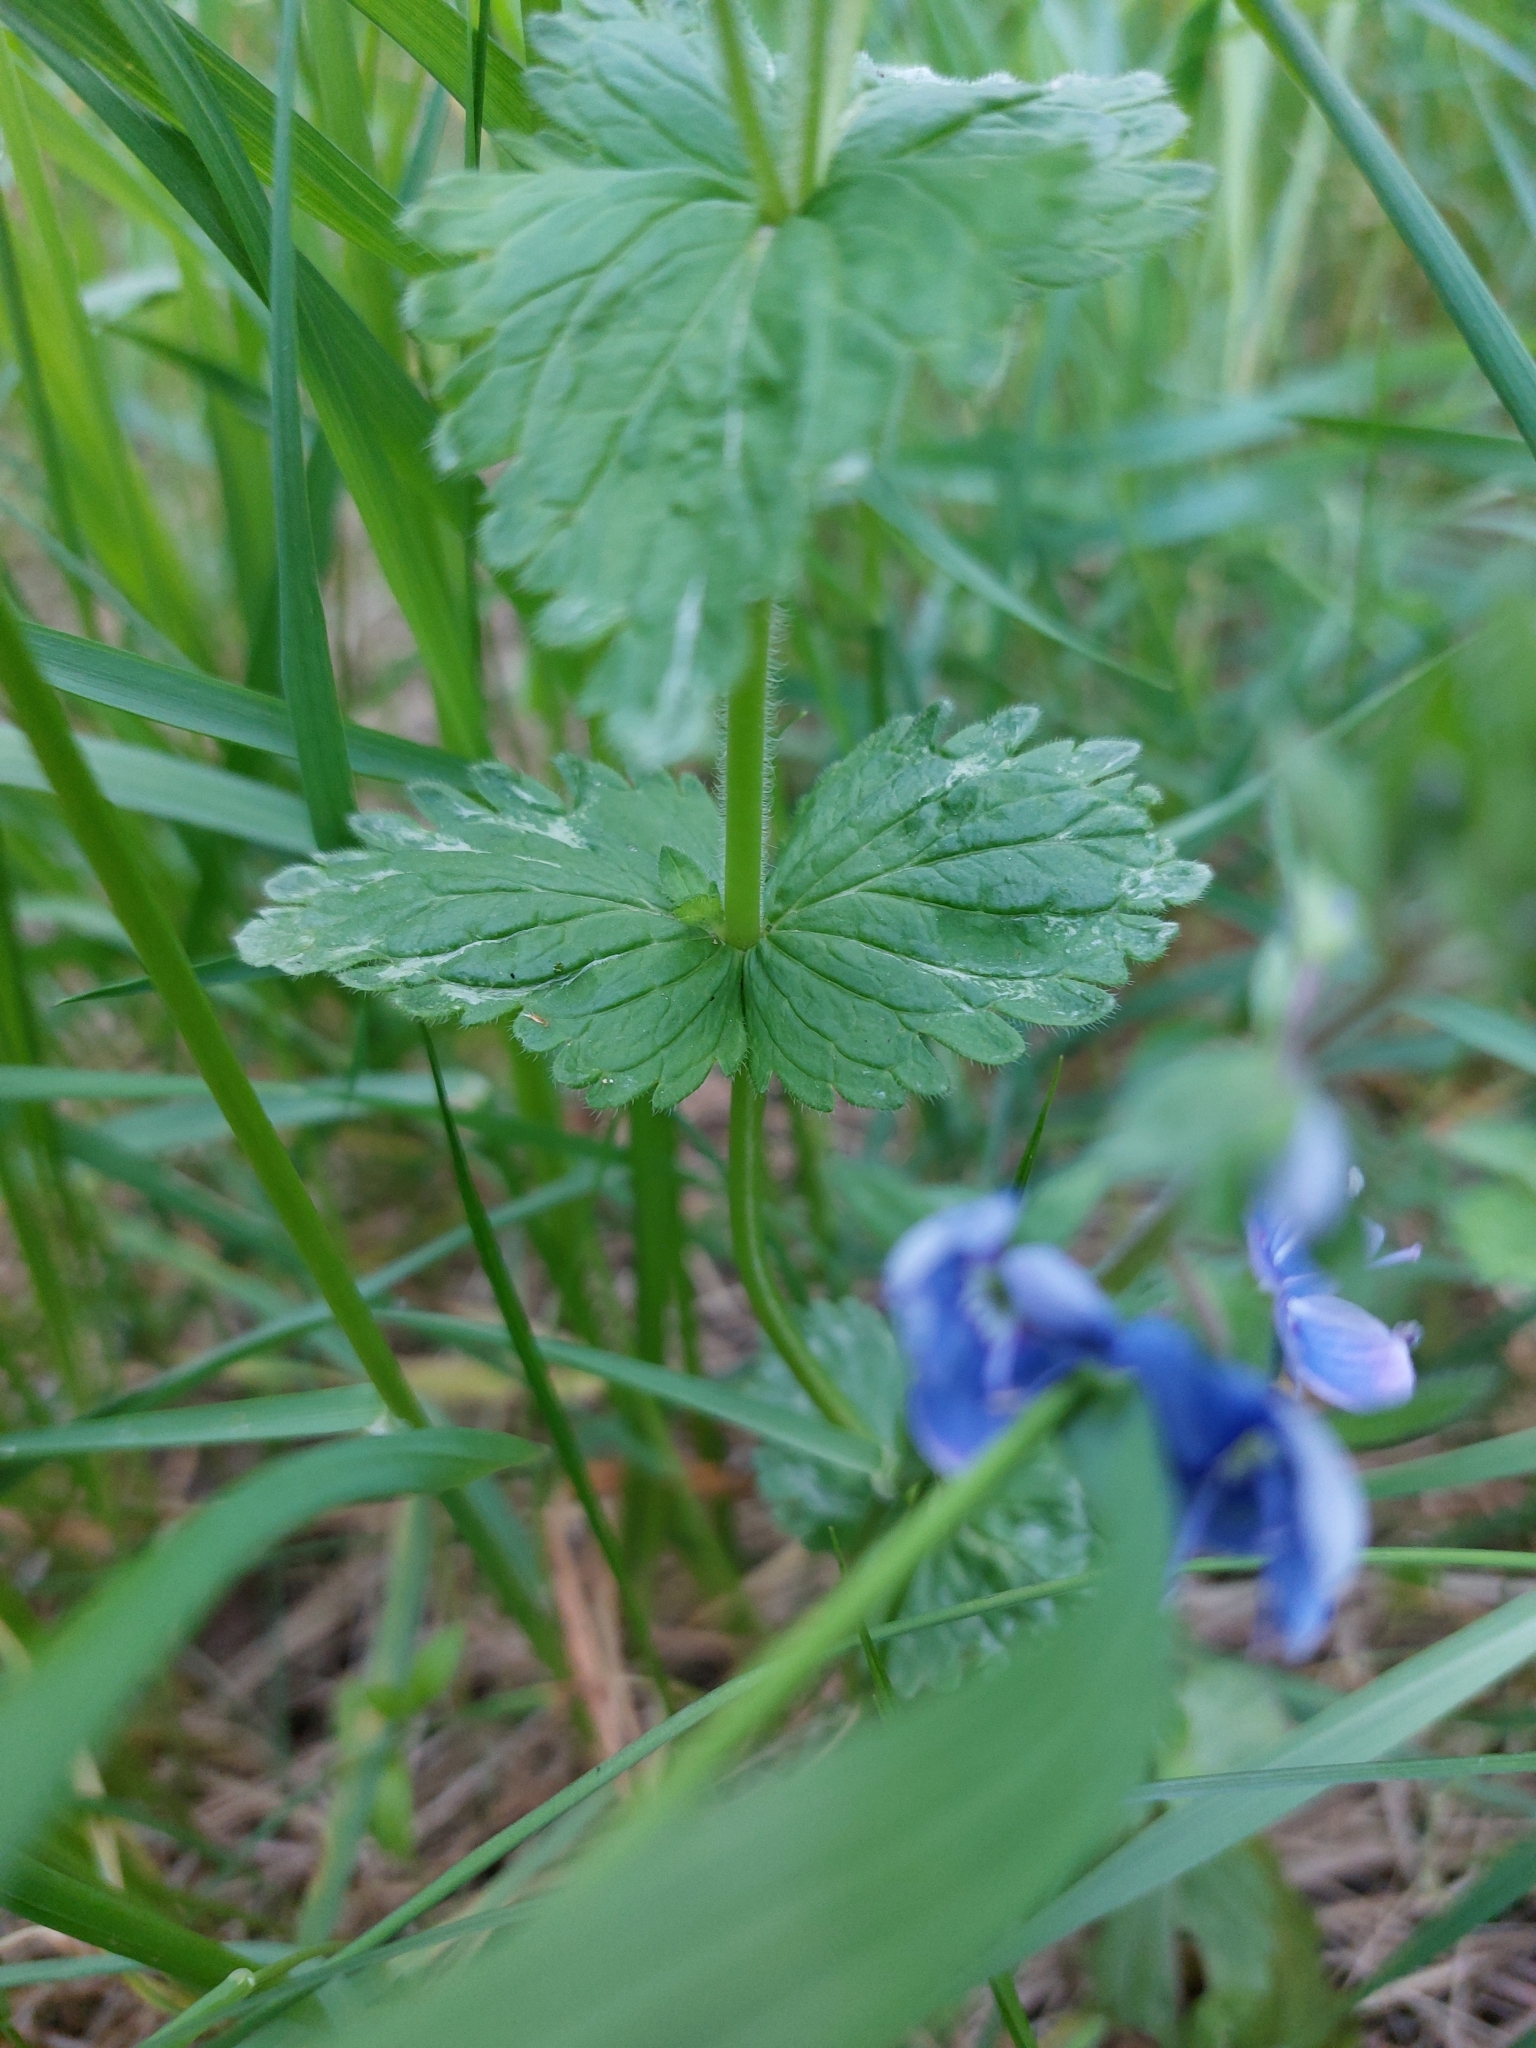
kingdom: Plantae
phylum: Tracheophyta
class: Magnoliopsida
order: Lamiales
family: Plantaginaceae
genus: Veronica
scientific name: Veronica chamaedrys
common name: Germander speedwell
